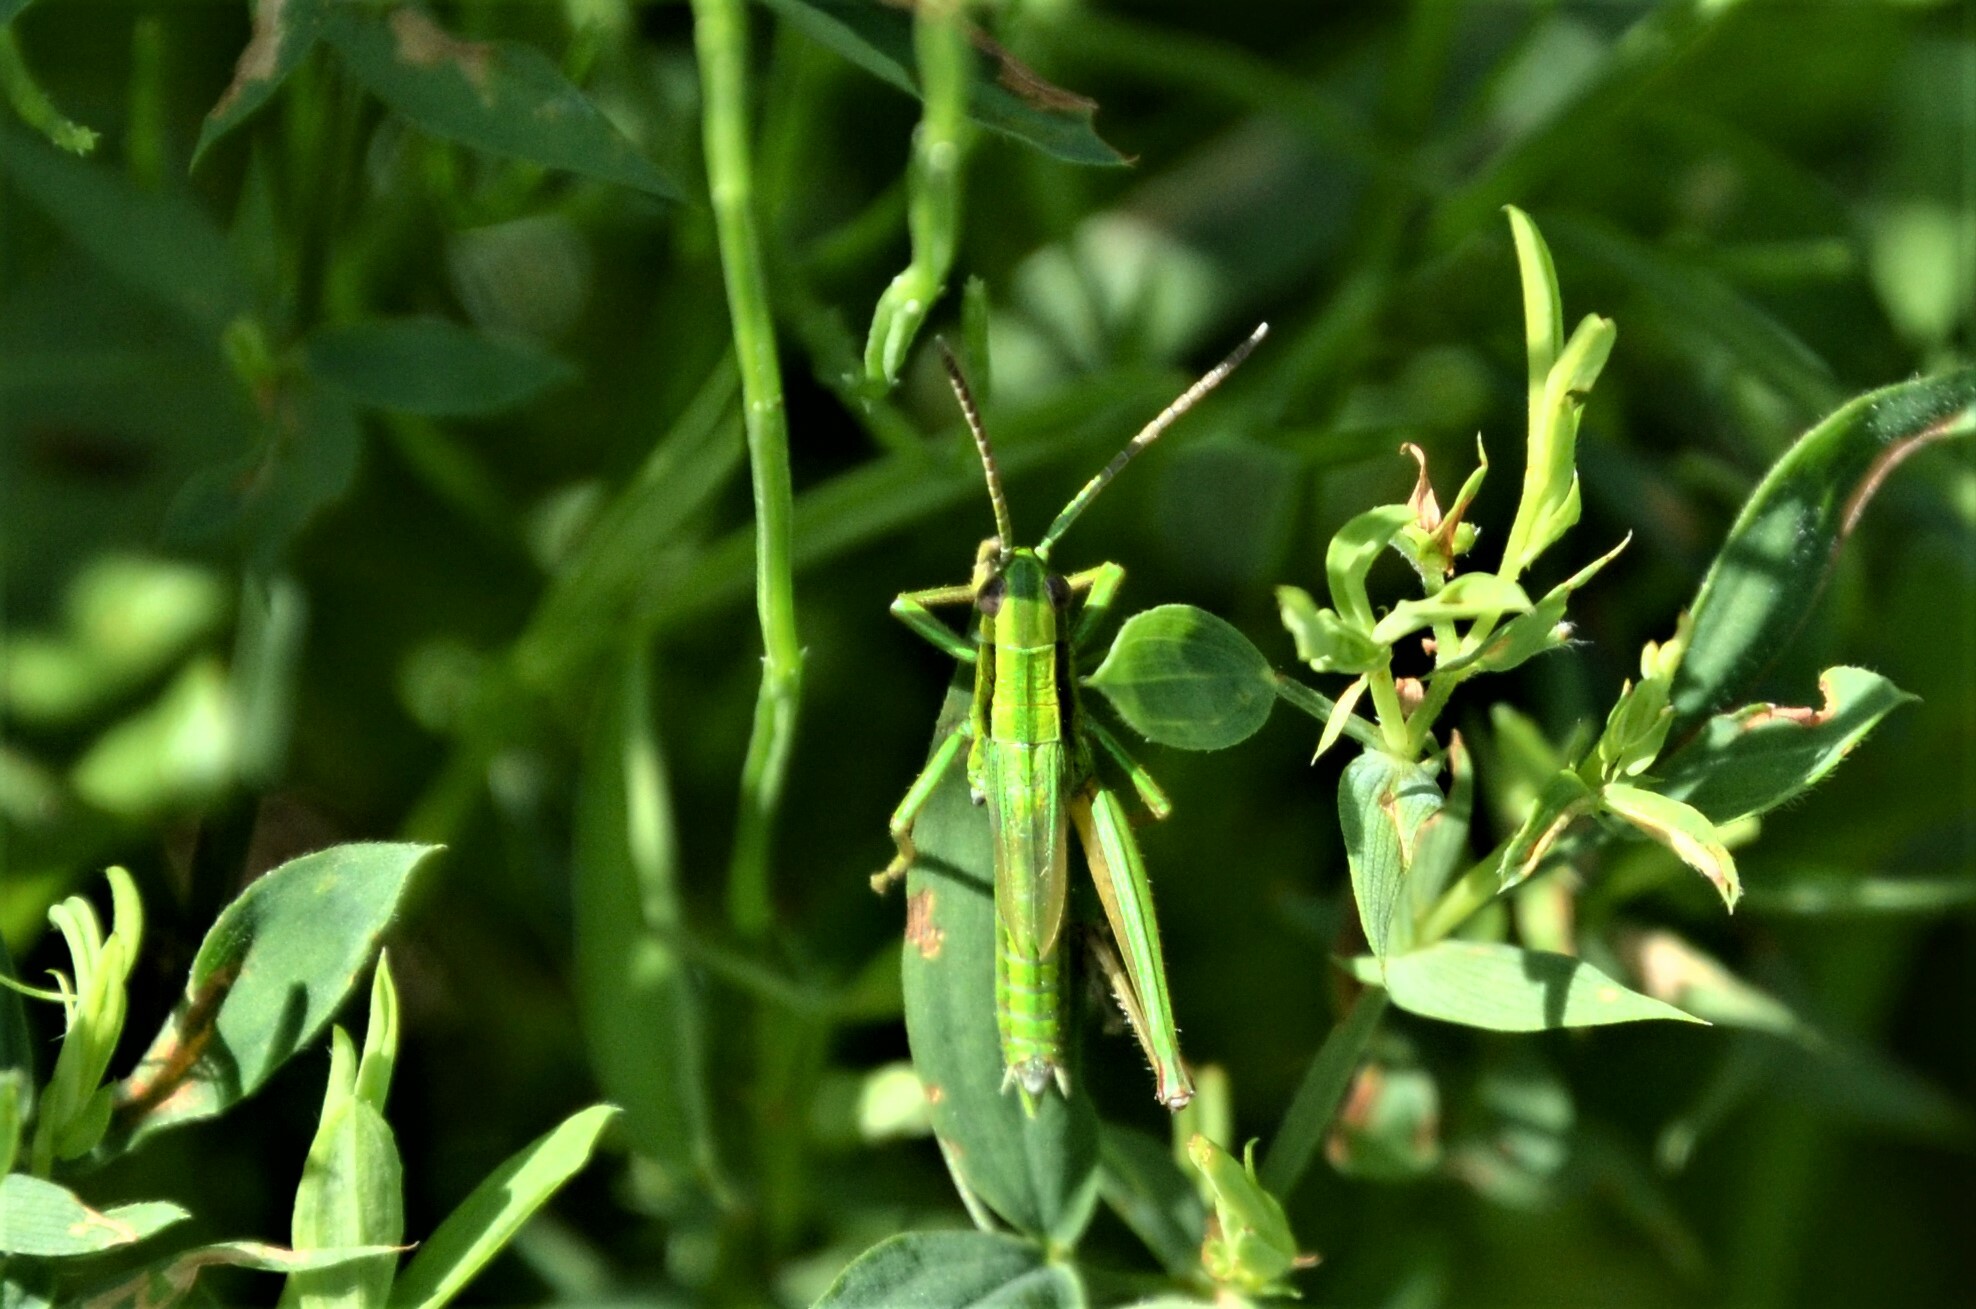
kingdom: Animalia
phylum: Arthropoda
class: Insecta
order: Orthoptera
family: Acrididae
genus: Euthystira
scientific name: Euthystira brachyptera
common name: Small gold grasshopper
